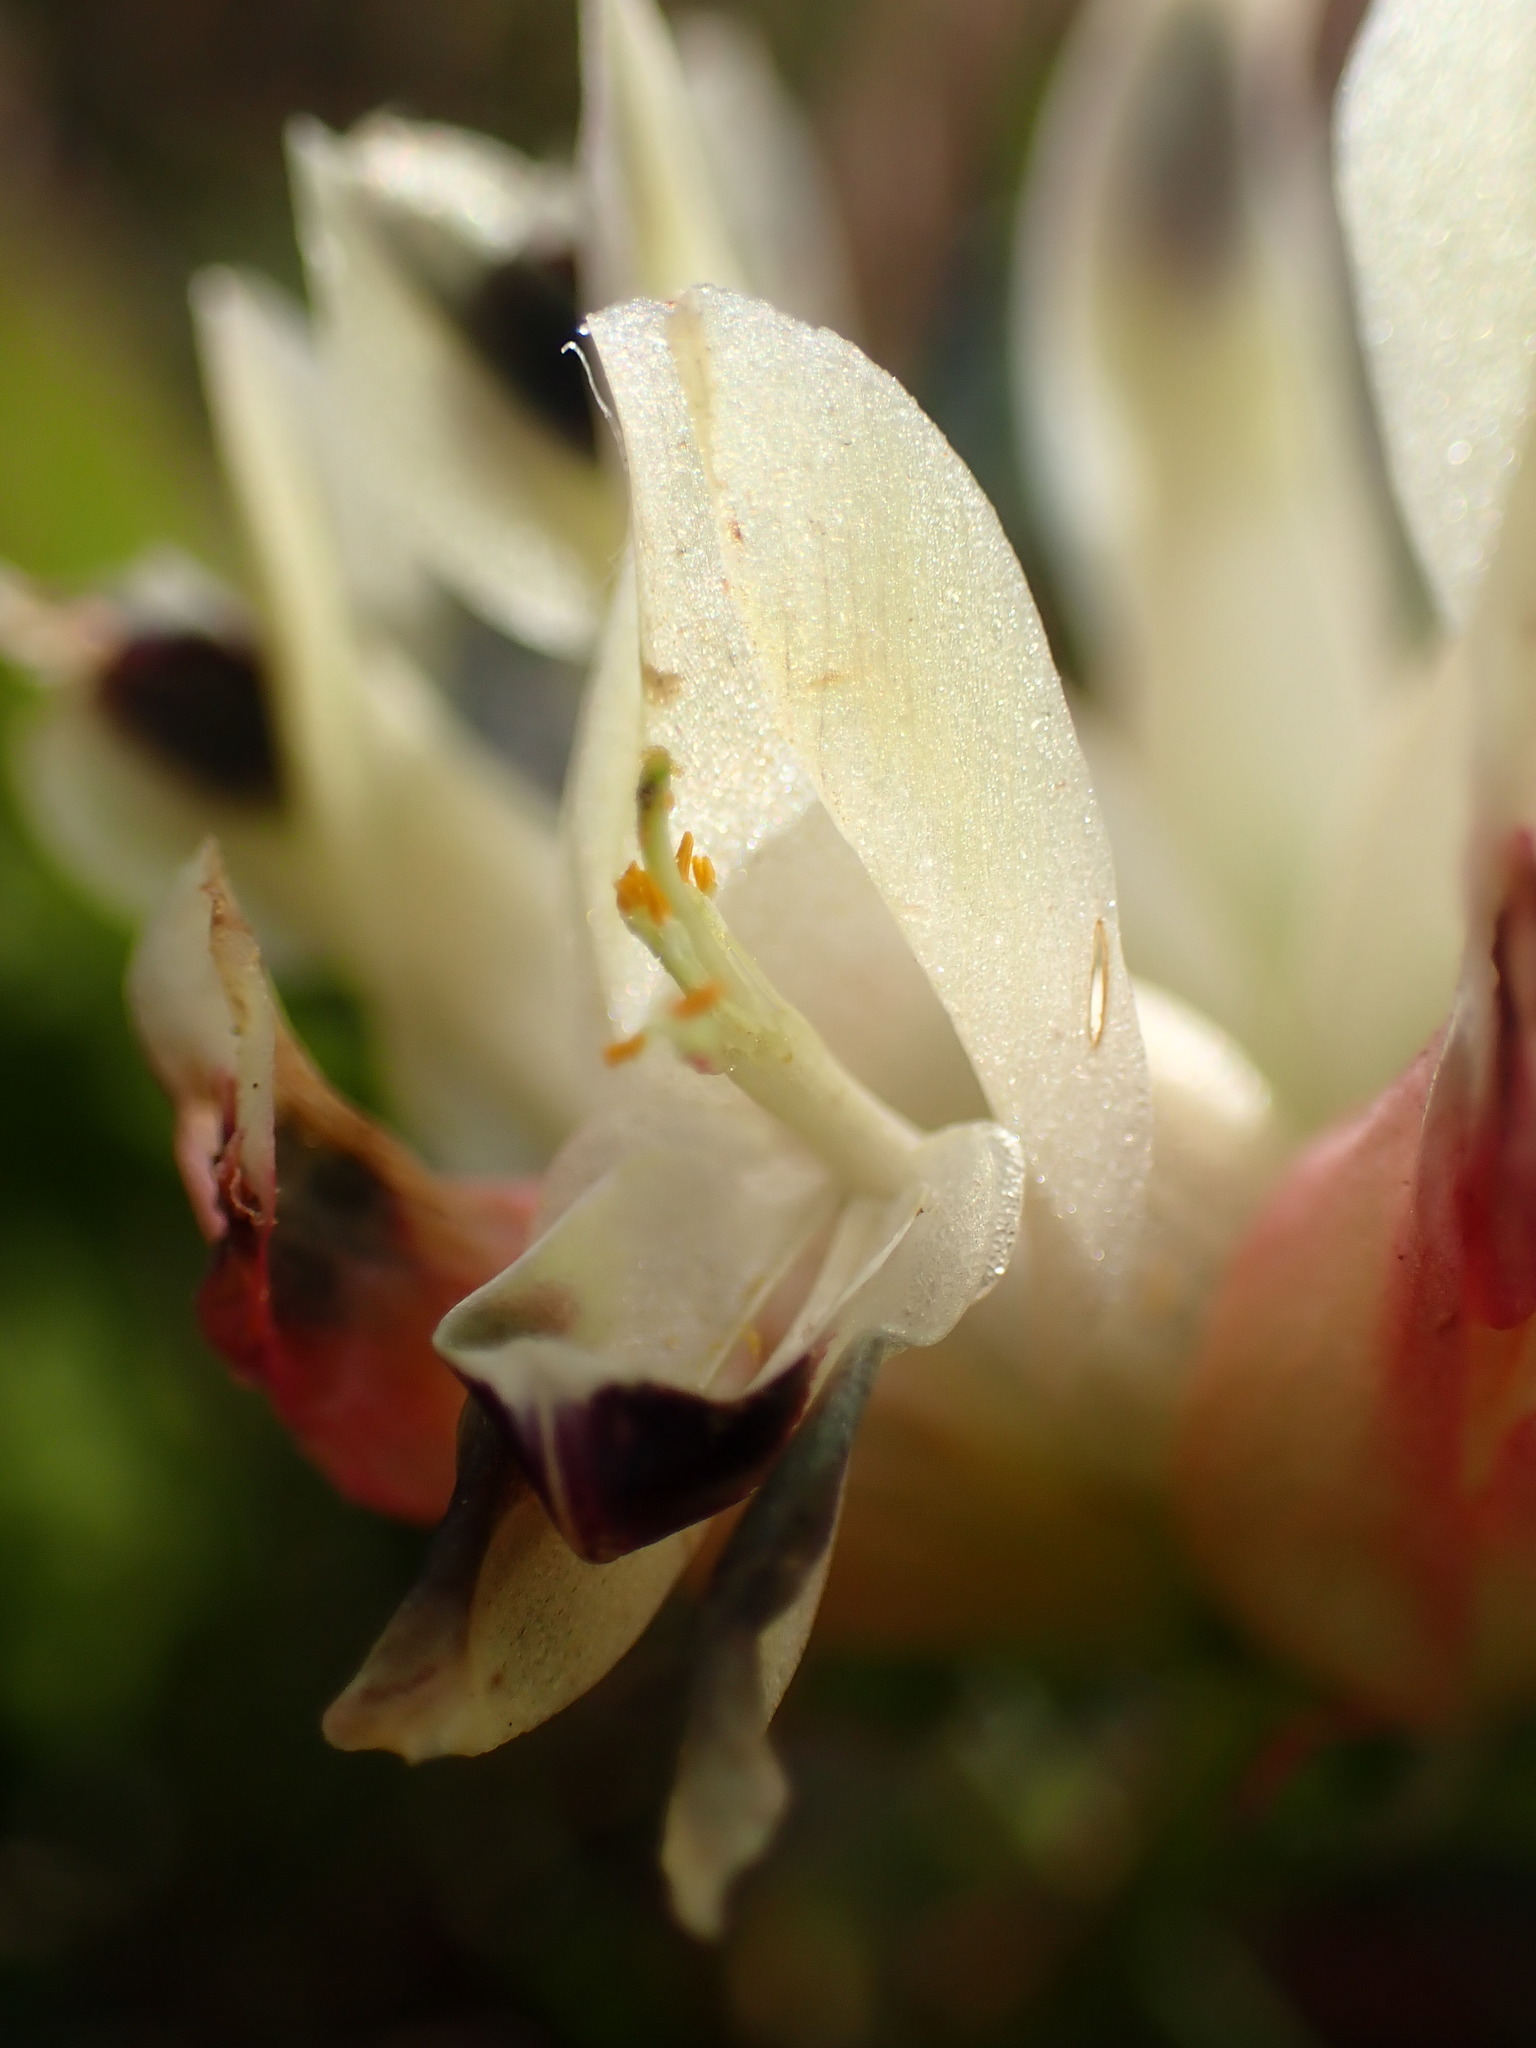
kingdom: Plantae
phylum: Tracheophyta
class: Magnoliopsida
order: Fabales
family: Fabaceae
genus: Trifolium
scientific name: Trifolium fucatum
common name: Puff clover
